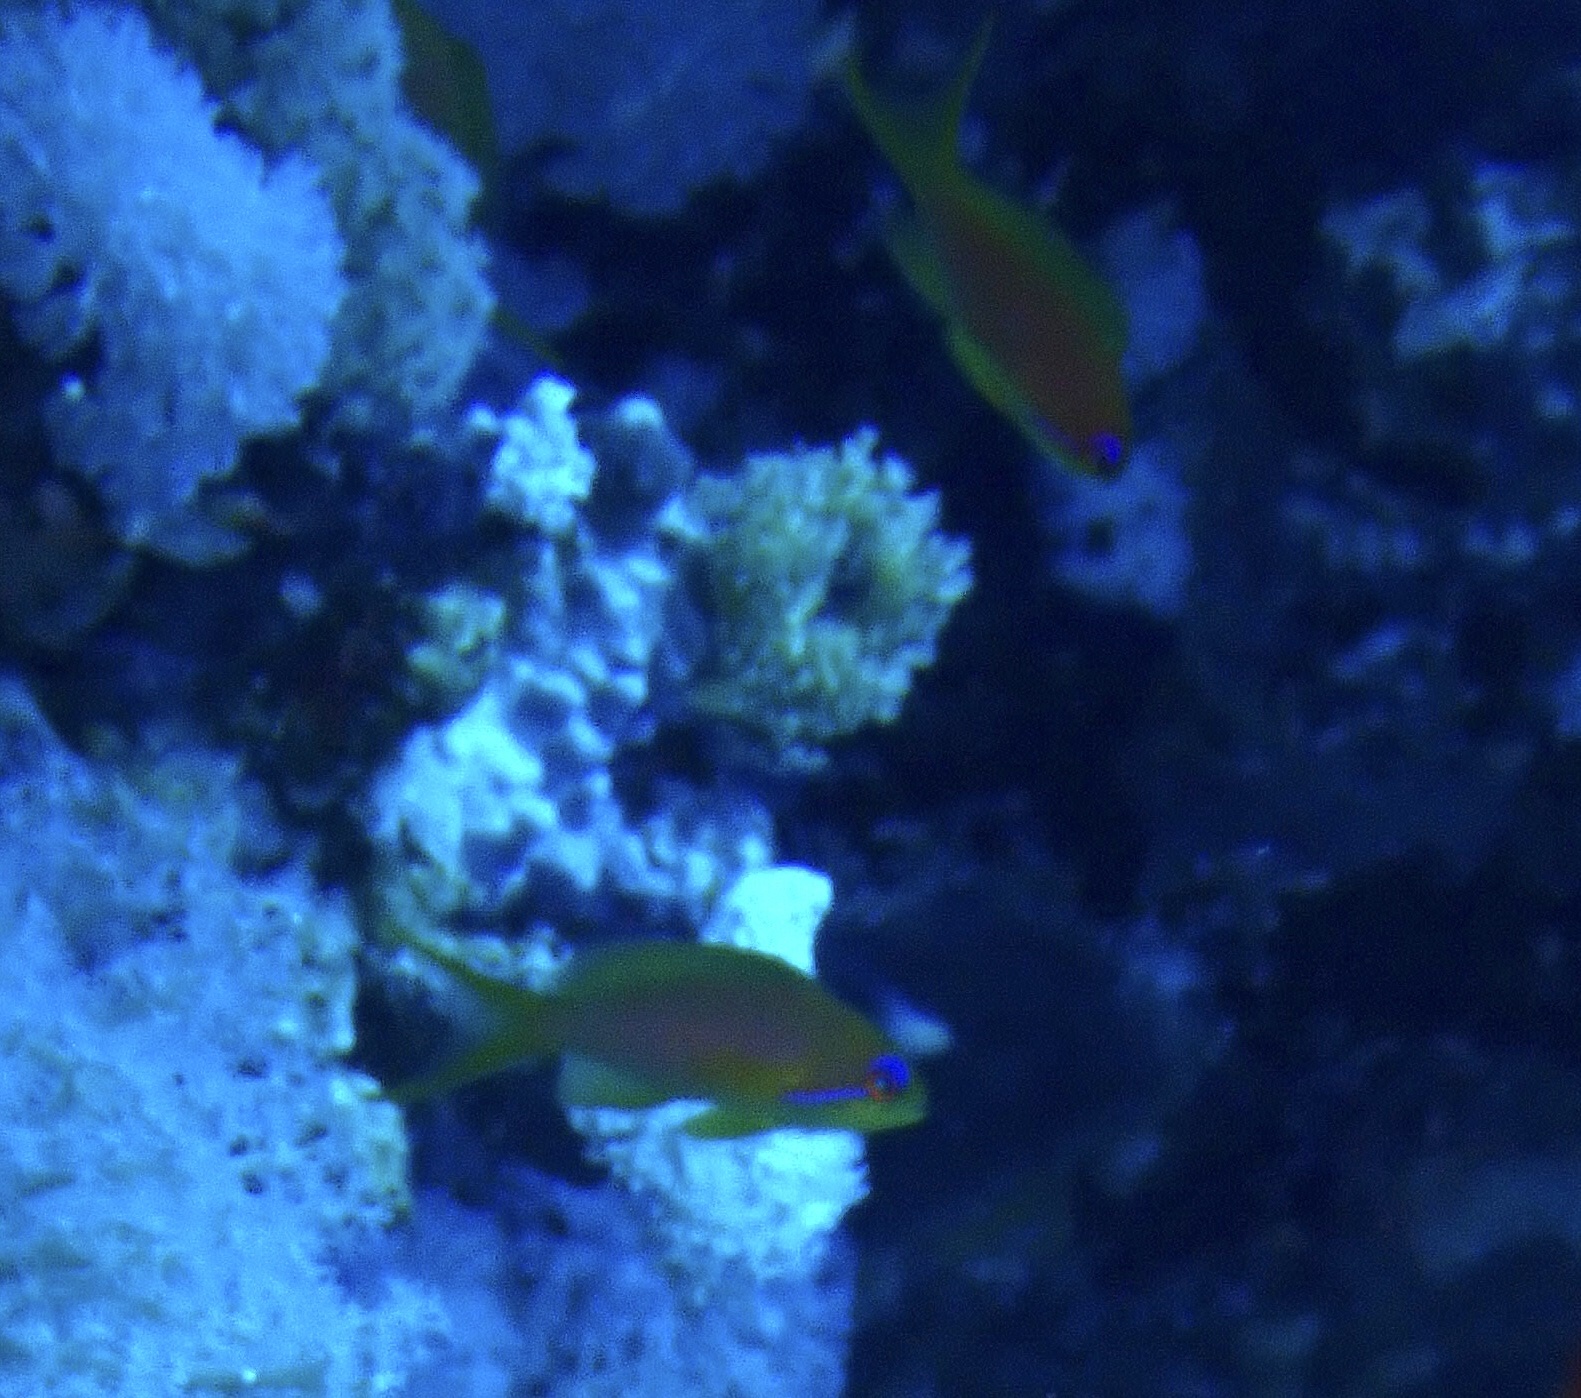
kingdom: Animalia
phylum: Chordata
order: Perciformes
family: Serranidae
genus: Pseudanthias
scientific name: Pseudanthias squamipinnis
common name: Scalefin anthias
